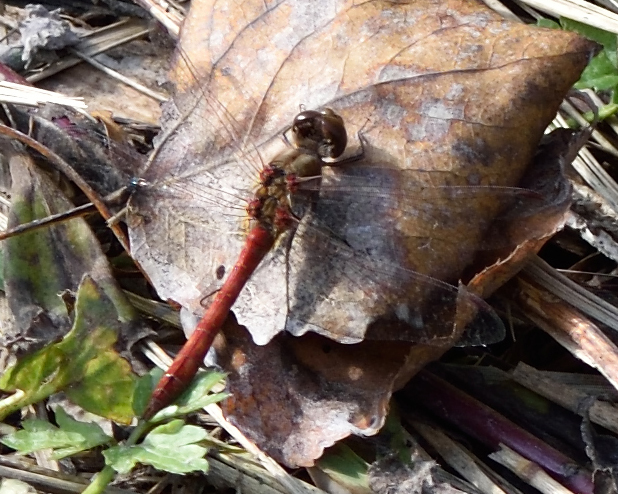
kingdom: Animalia
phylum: Arthropoda
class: Insecta
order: Odonata
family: Libellulidae
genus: Sympetrum
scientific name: Sympetrum vulgatum
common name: Vagrant darter
